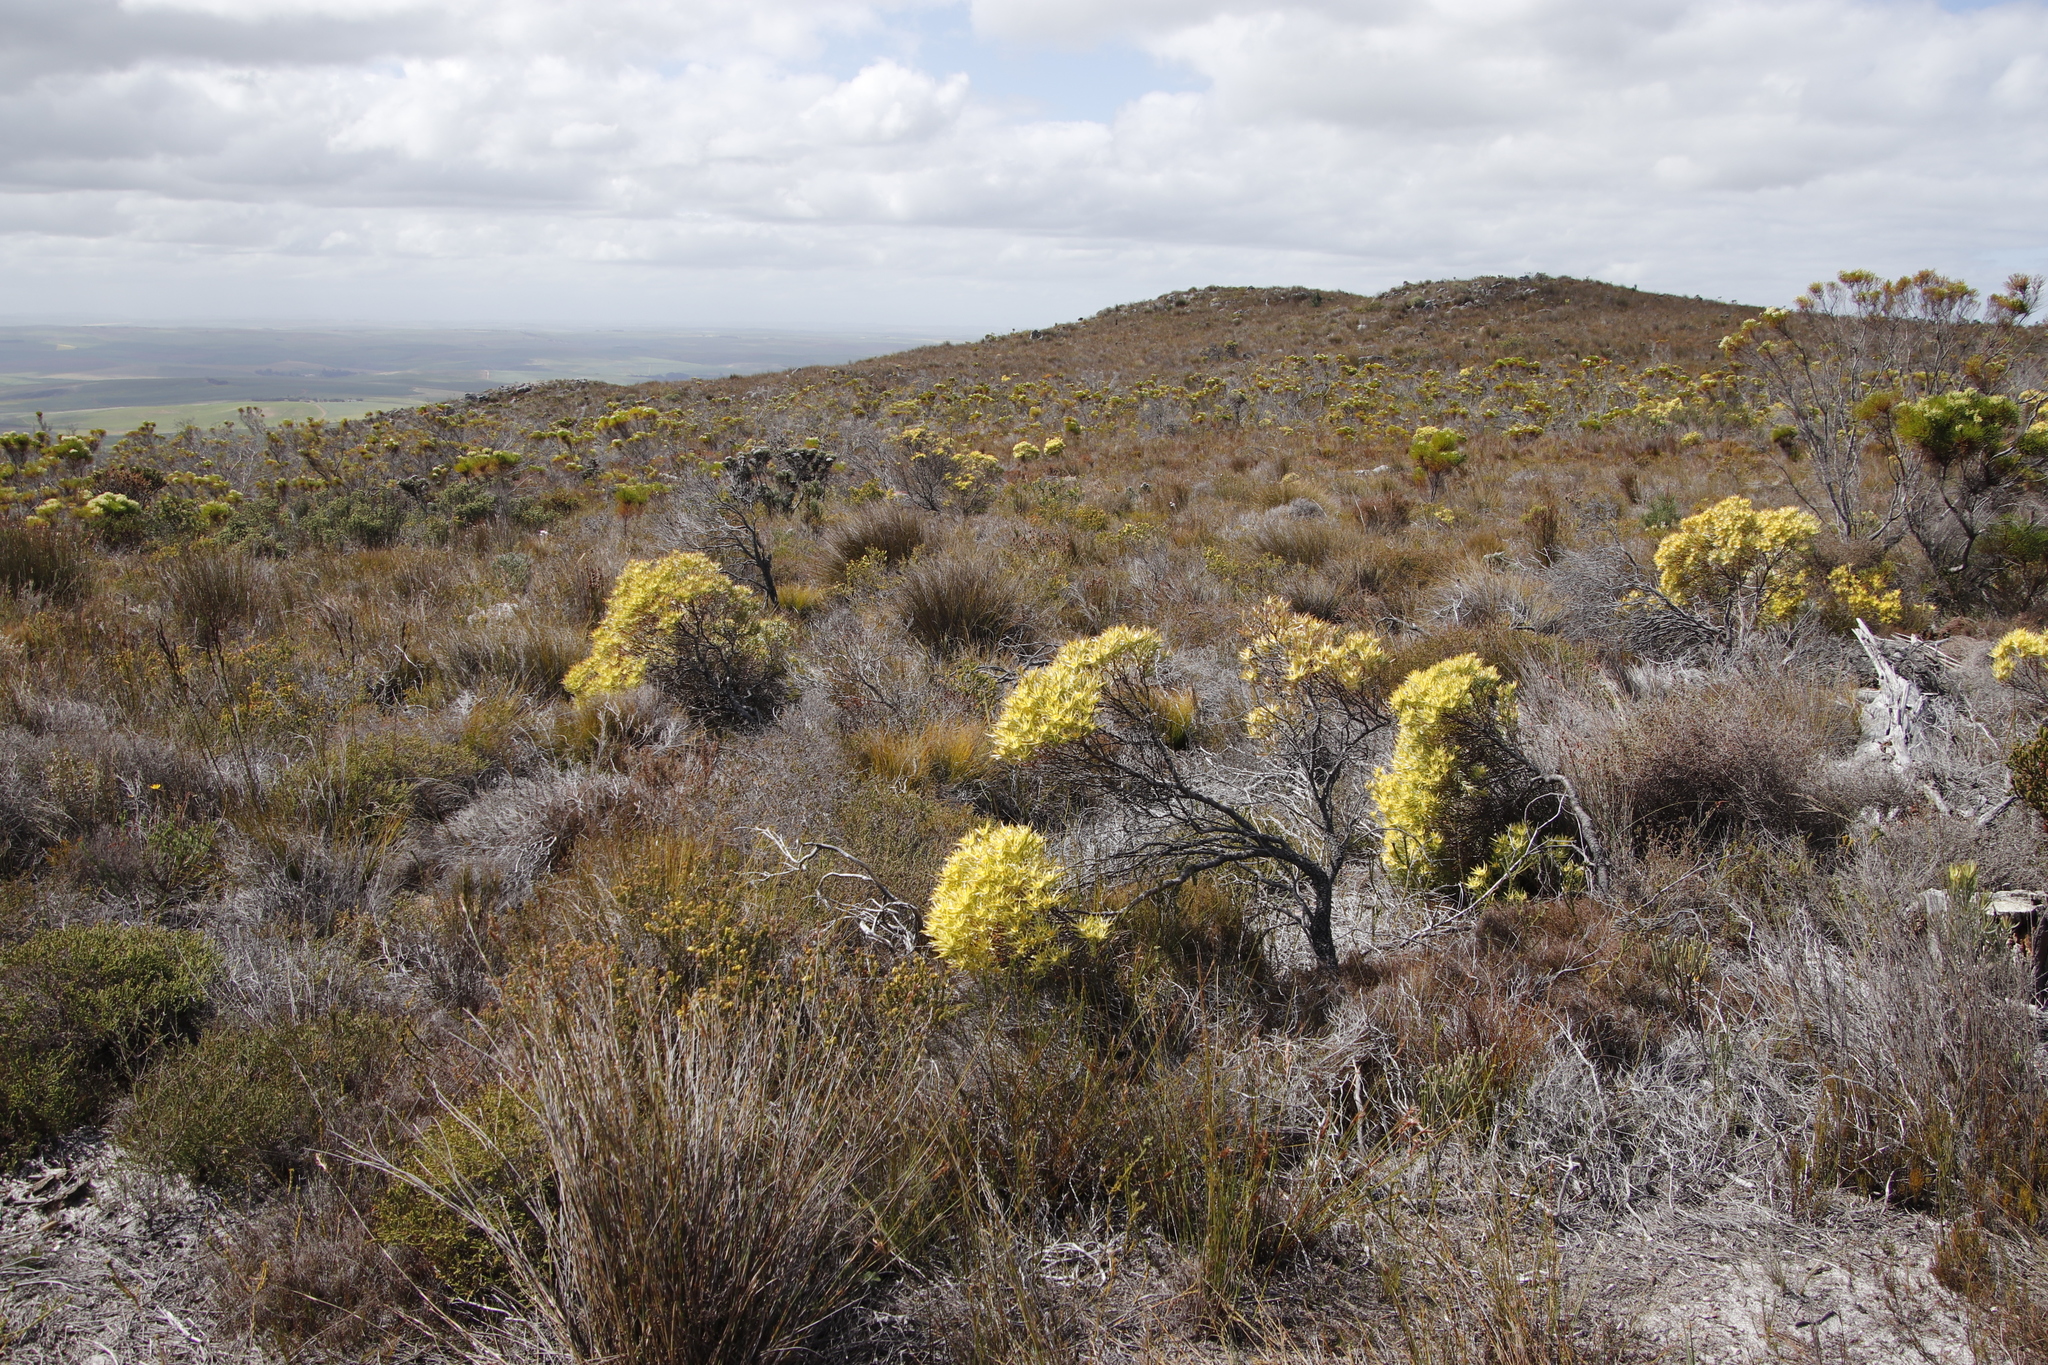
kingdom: Plantae
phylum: Tracheophyta
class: Magnoliopsida
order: Proteales
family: Proteaceae
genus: Leucadendron
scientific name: Leucadendron xanthoconus
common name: Sickle-leaf conebush
